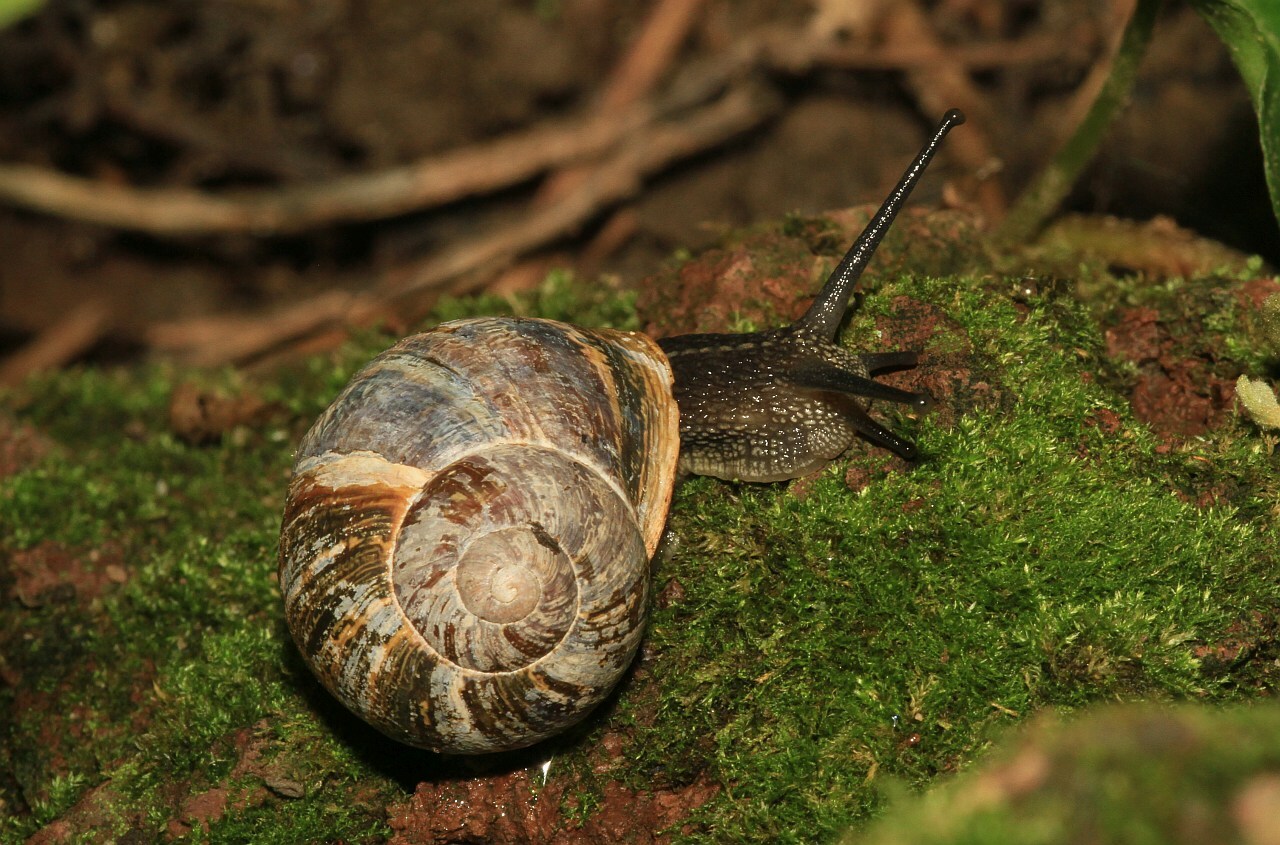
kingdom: Animalia
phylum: Mollusca
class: Gastropoda
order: Stylommatophora
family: Helicidae
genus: Cornu
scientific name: Cornu aspersum
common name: Brown garden snail
